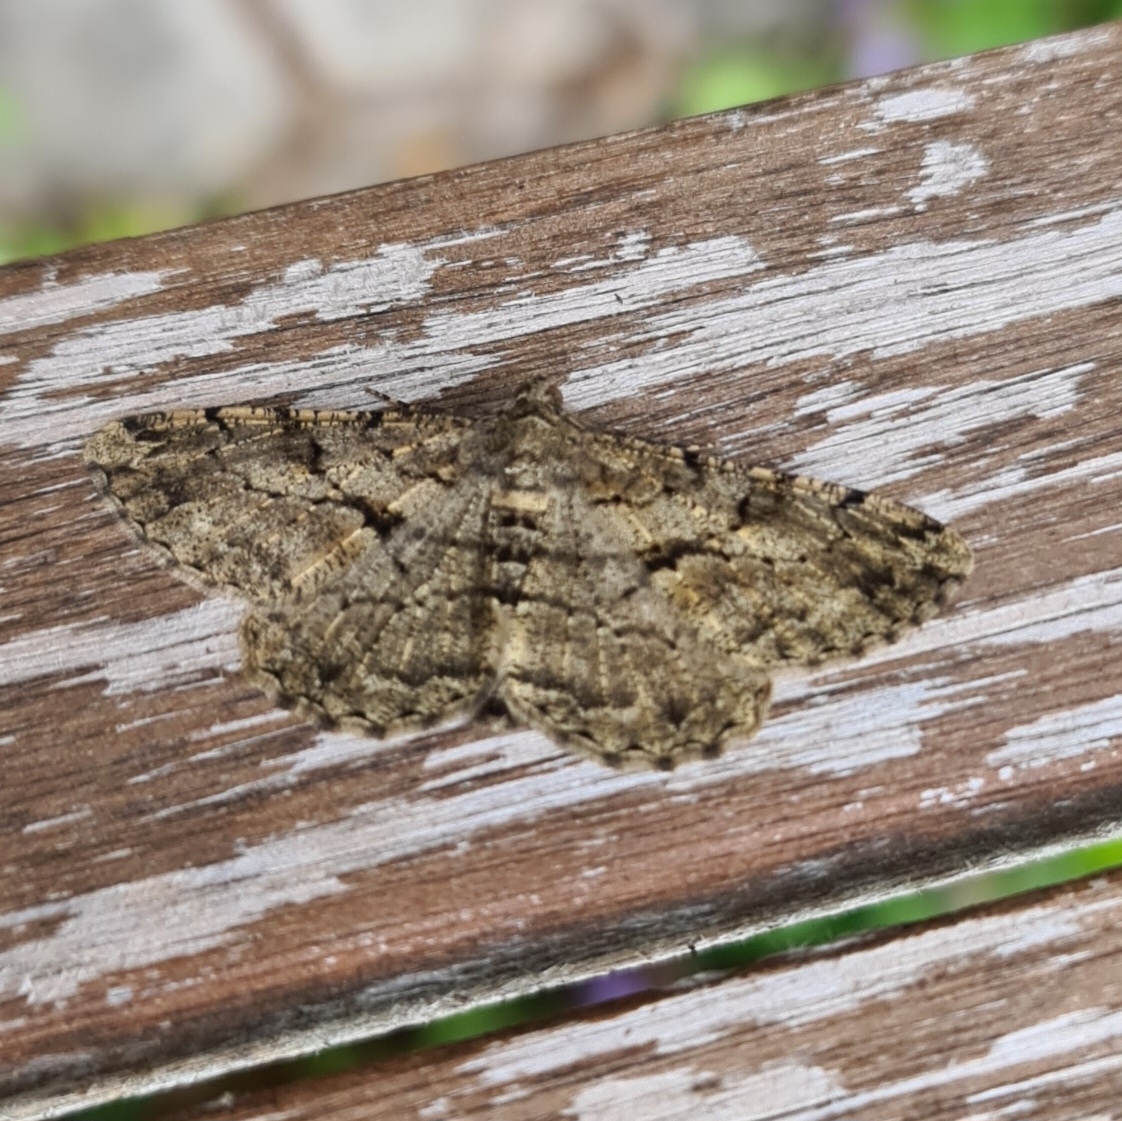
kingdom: Animalia
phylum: Arthropoda
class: Insecta
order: Lepidoptera
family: Geometridae
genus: Peribatodes
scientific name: Peribatodes rhomboidaria
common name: Willow beauty
